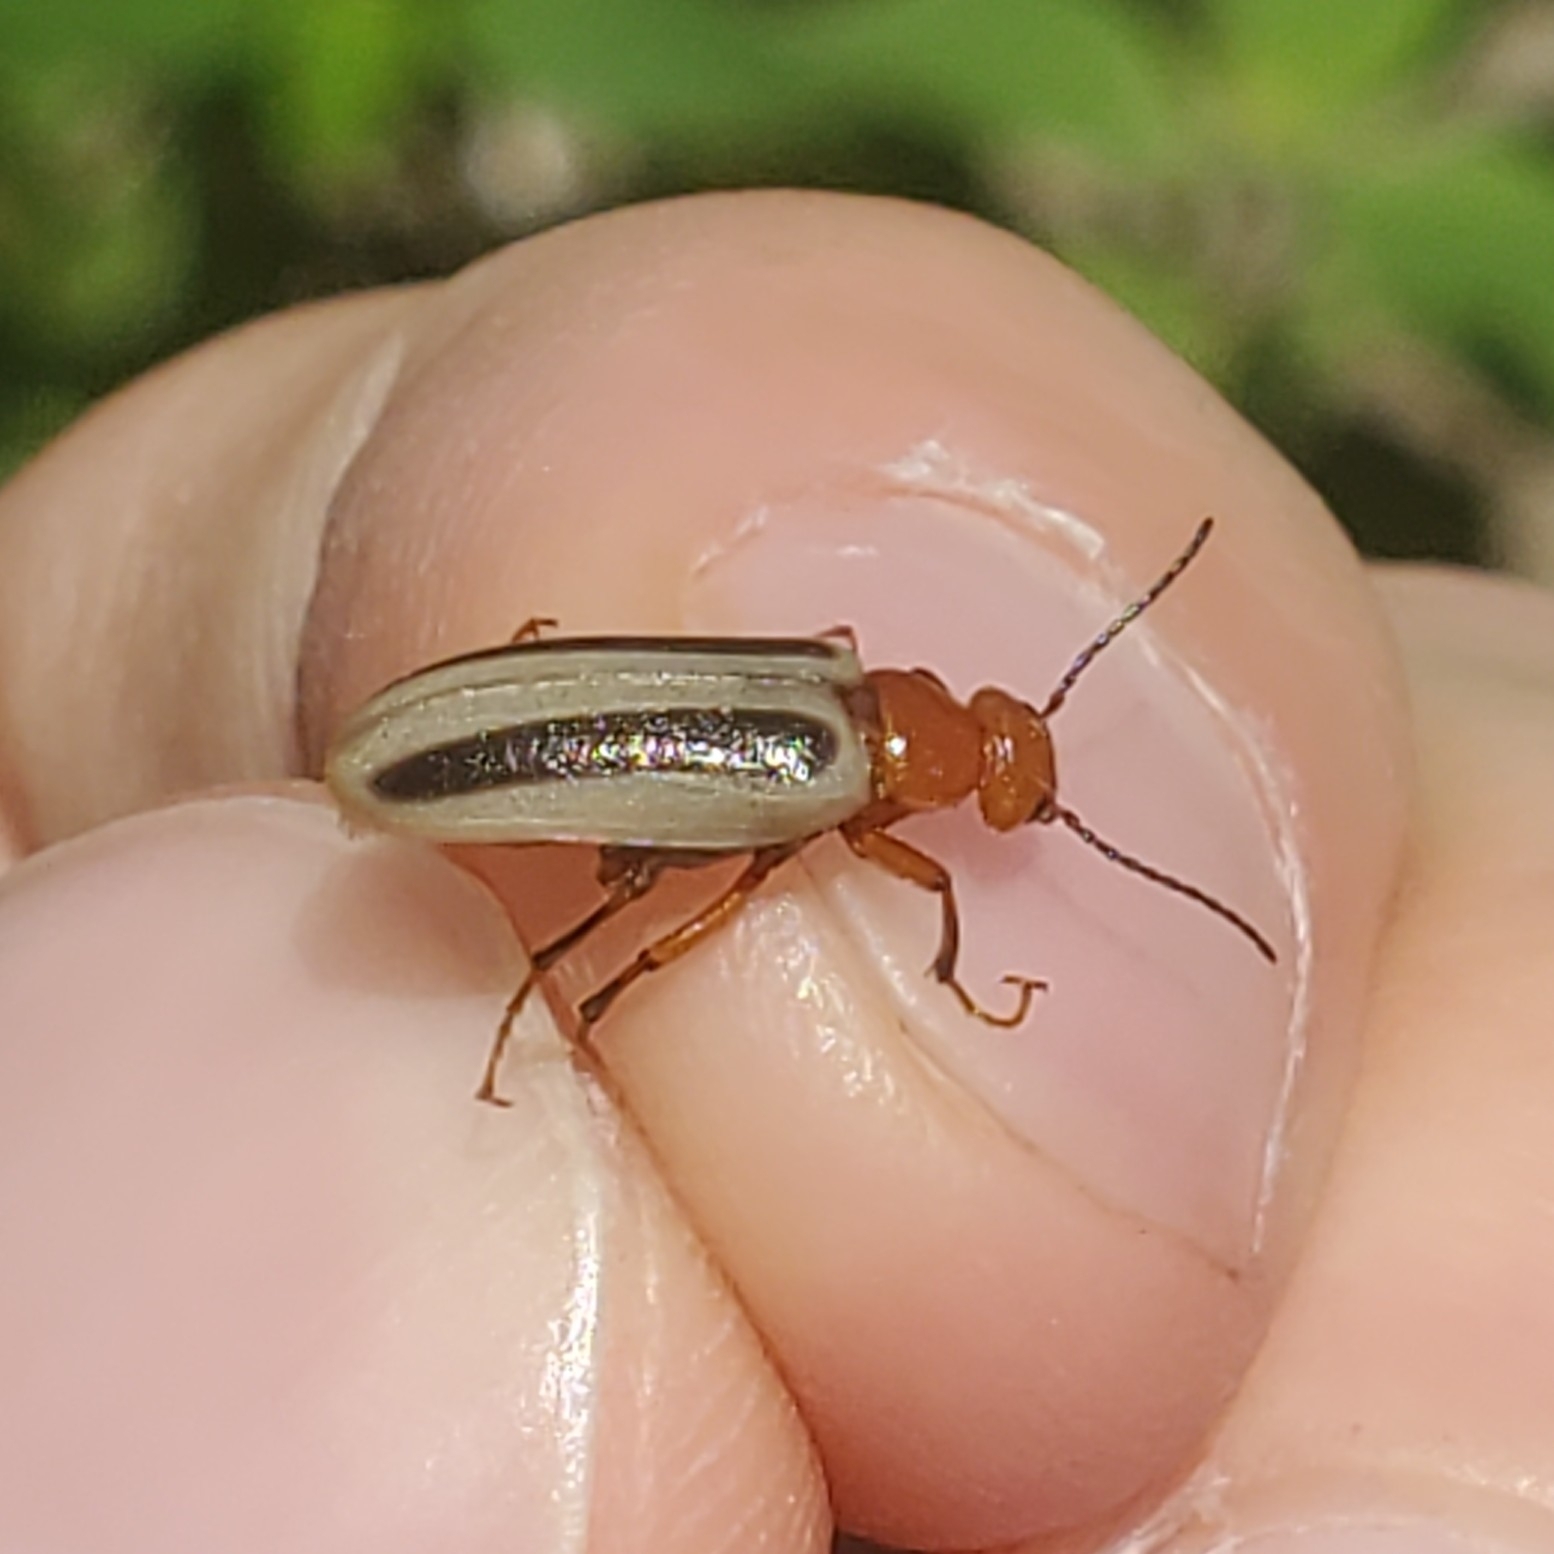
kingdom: Animalia
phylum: Arthropoda
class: Insecta
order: Coleoptera
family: Meloidae
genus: Zonitis
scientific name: Zonitis bilineata
